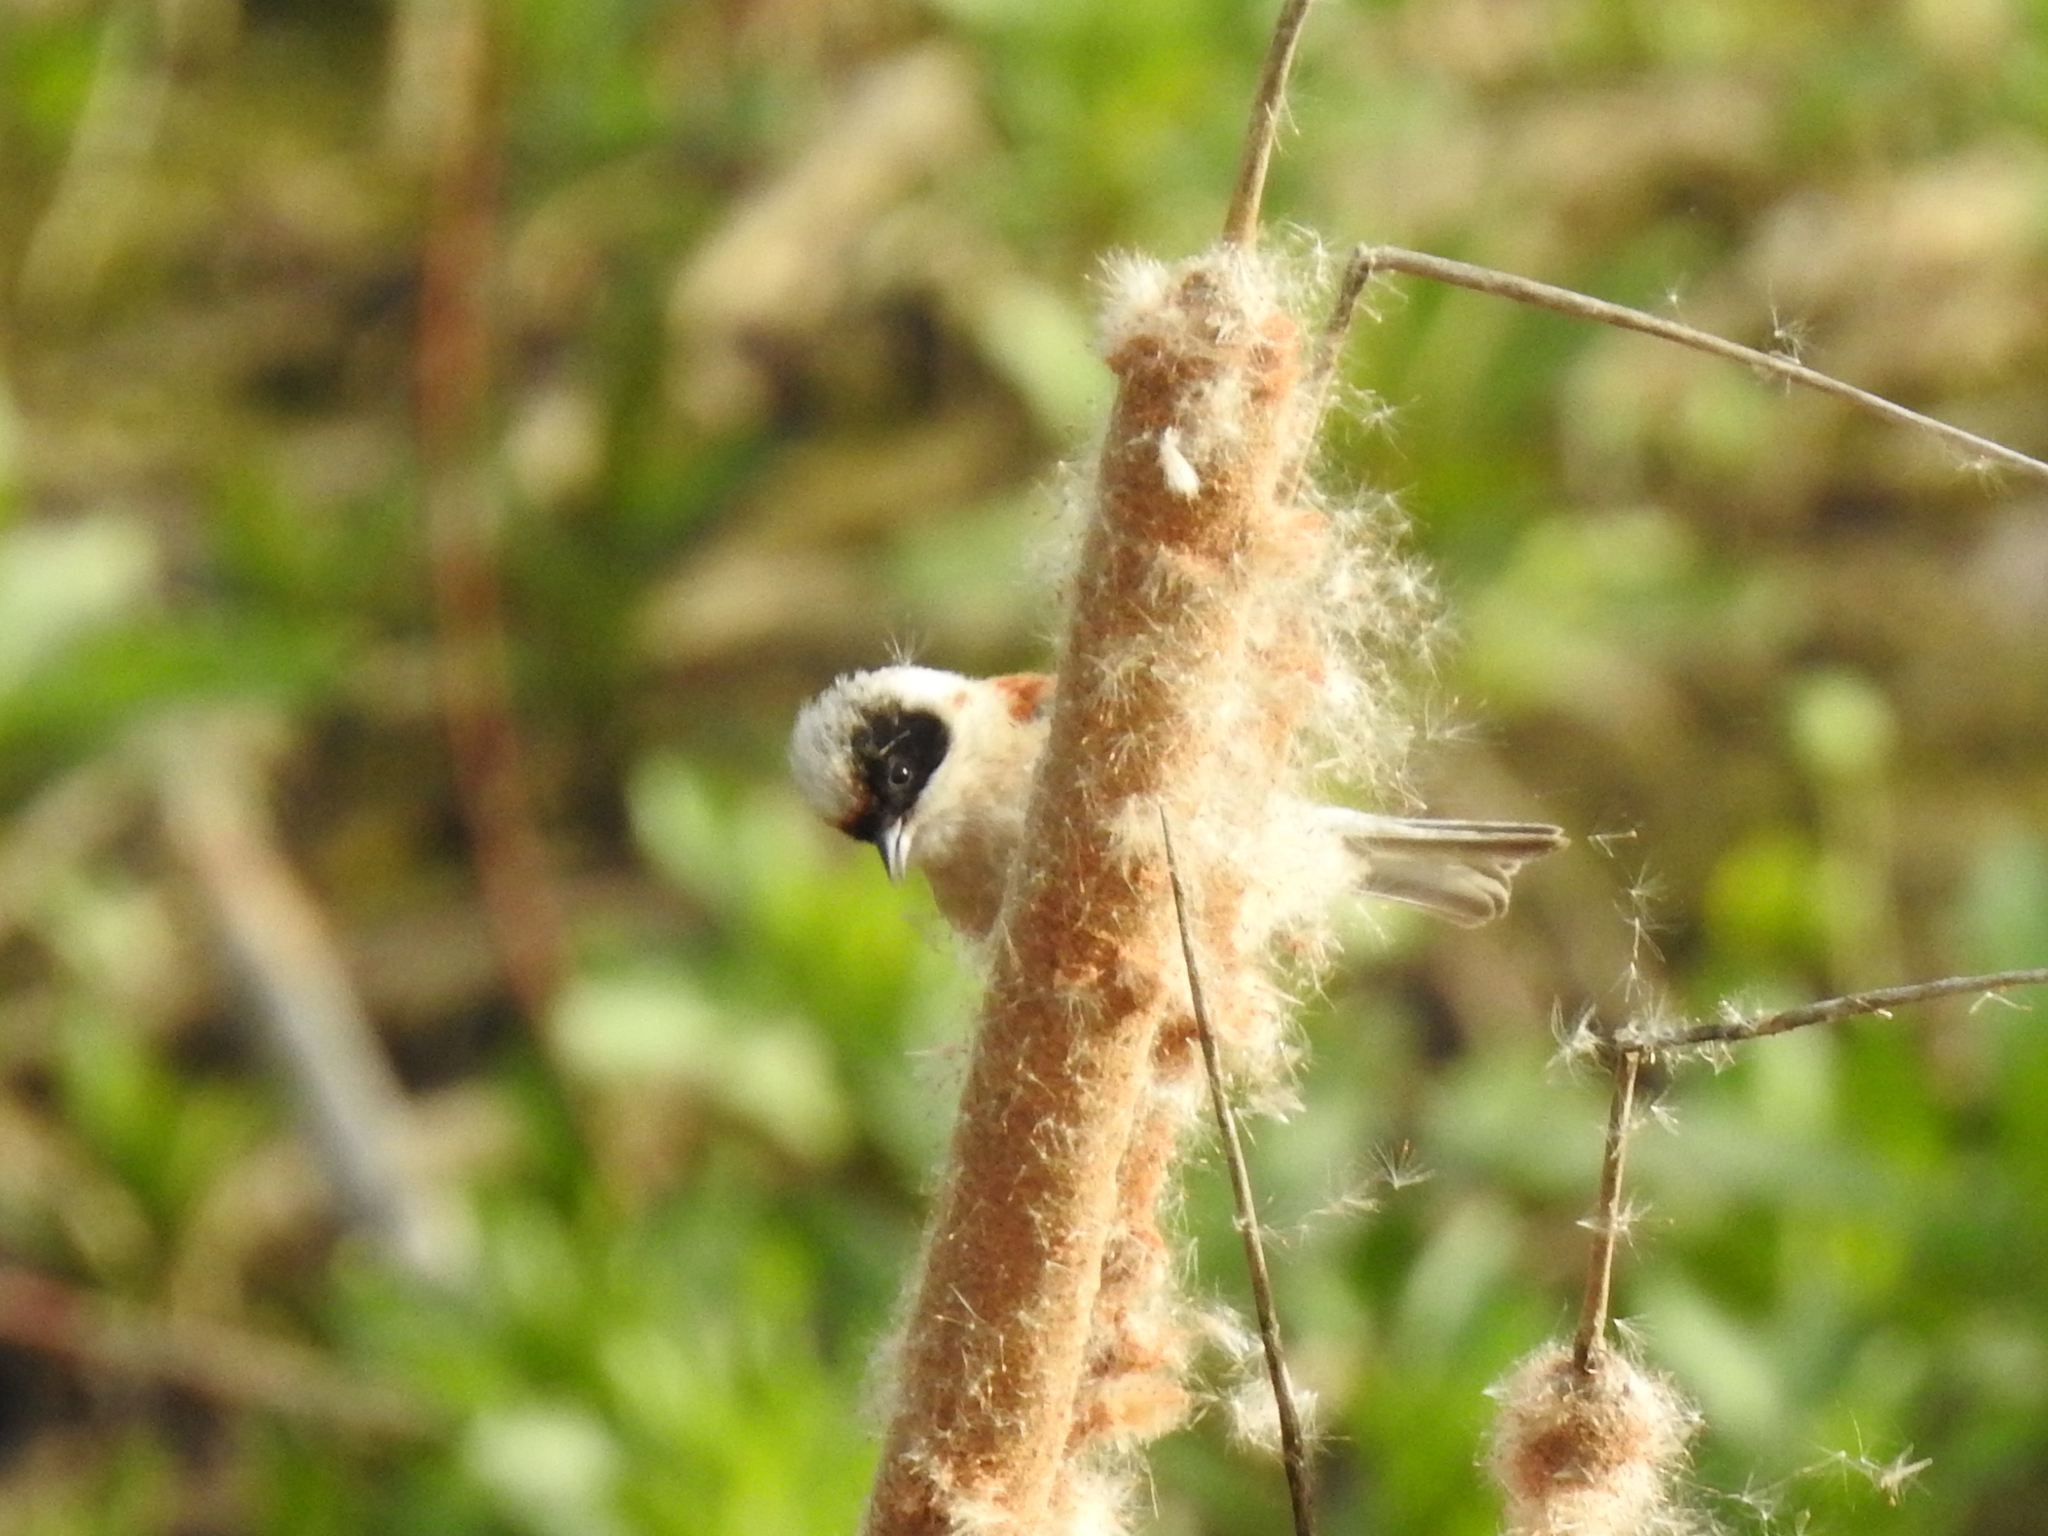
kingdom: Animalia
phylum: Chordata
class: Aves
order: Passeriformes
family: Remizidae
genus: Remiz
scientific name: Remiz pendulinus
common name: Eurasian penduline tit
